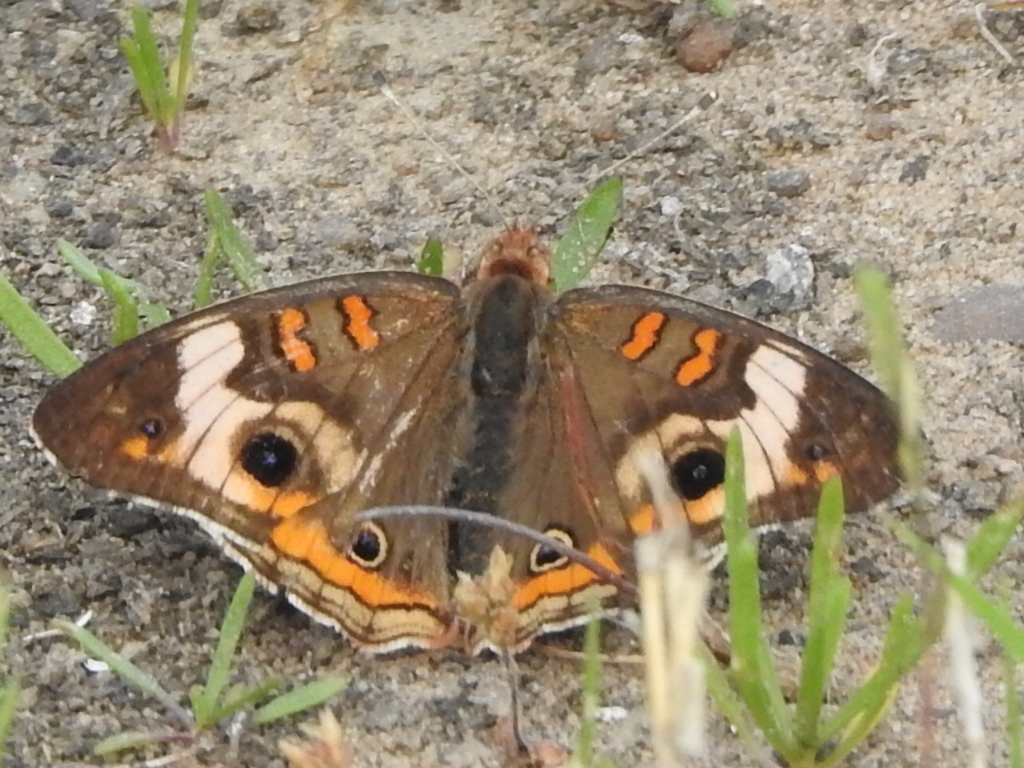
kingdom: Animalia
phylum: Arthropoda
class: Insecta
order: Lepidoptera
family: Nymphalidae
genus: Junonia
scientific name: Junonia coenia
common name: Common buckeye
